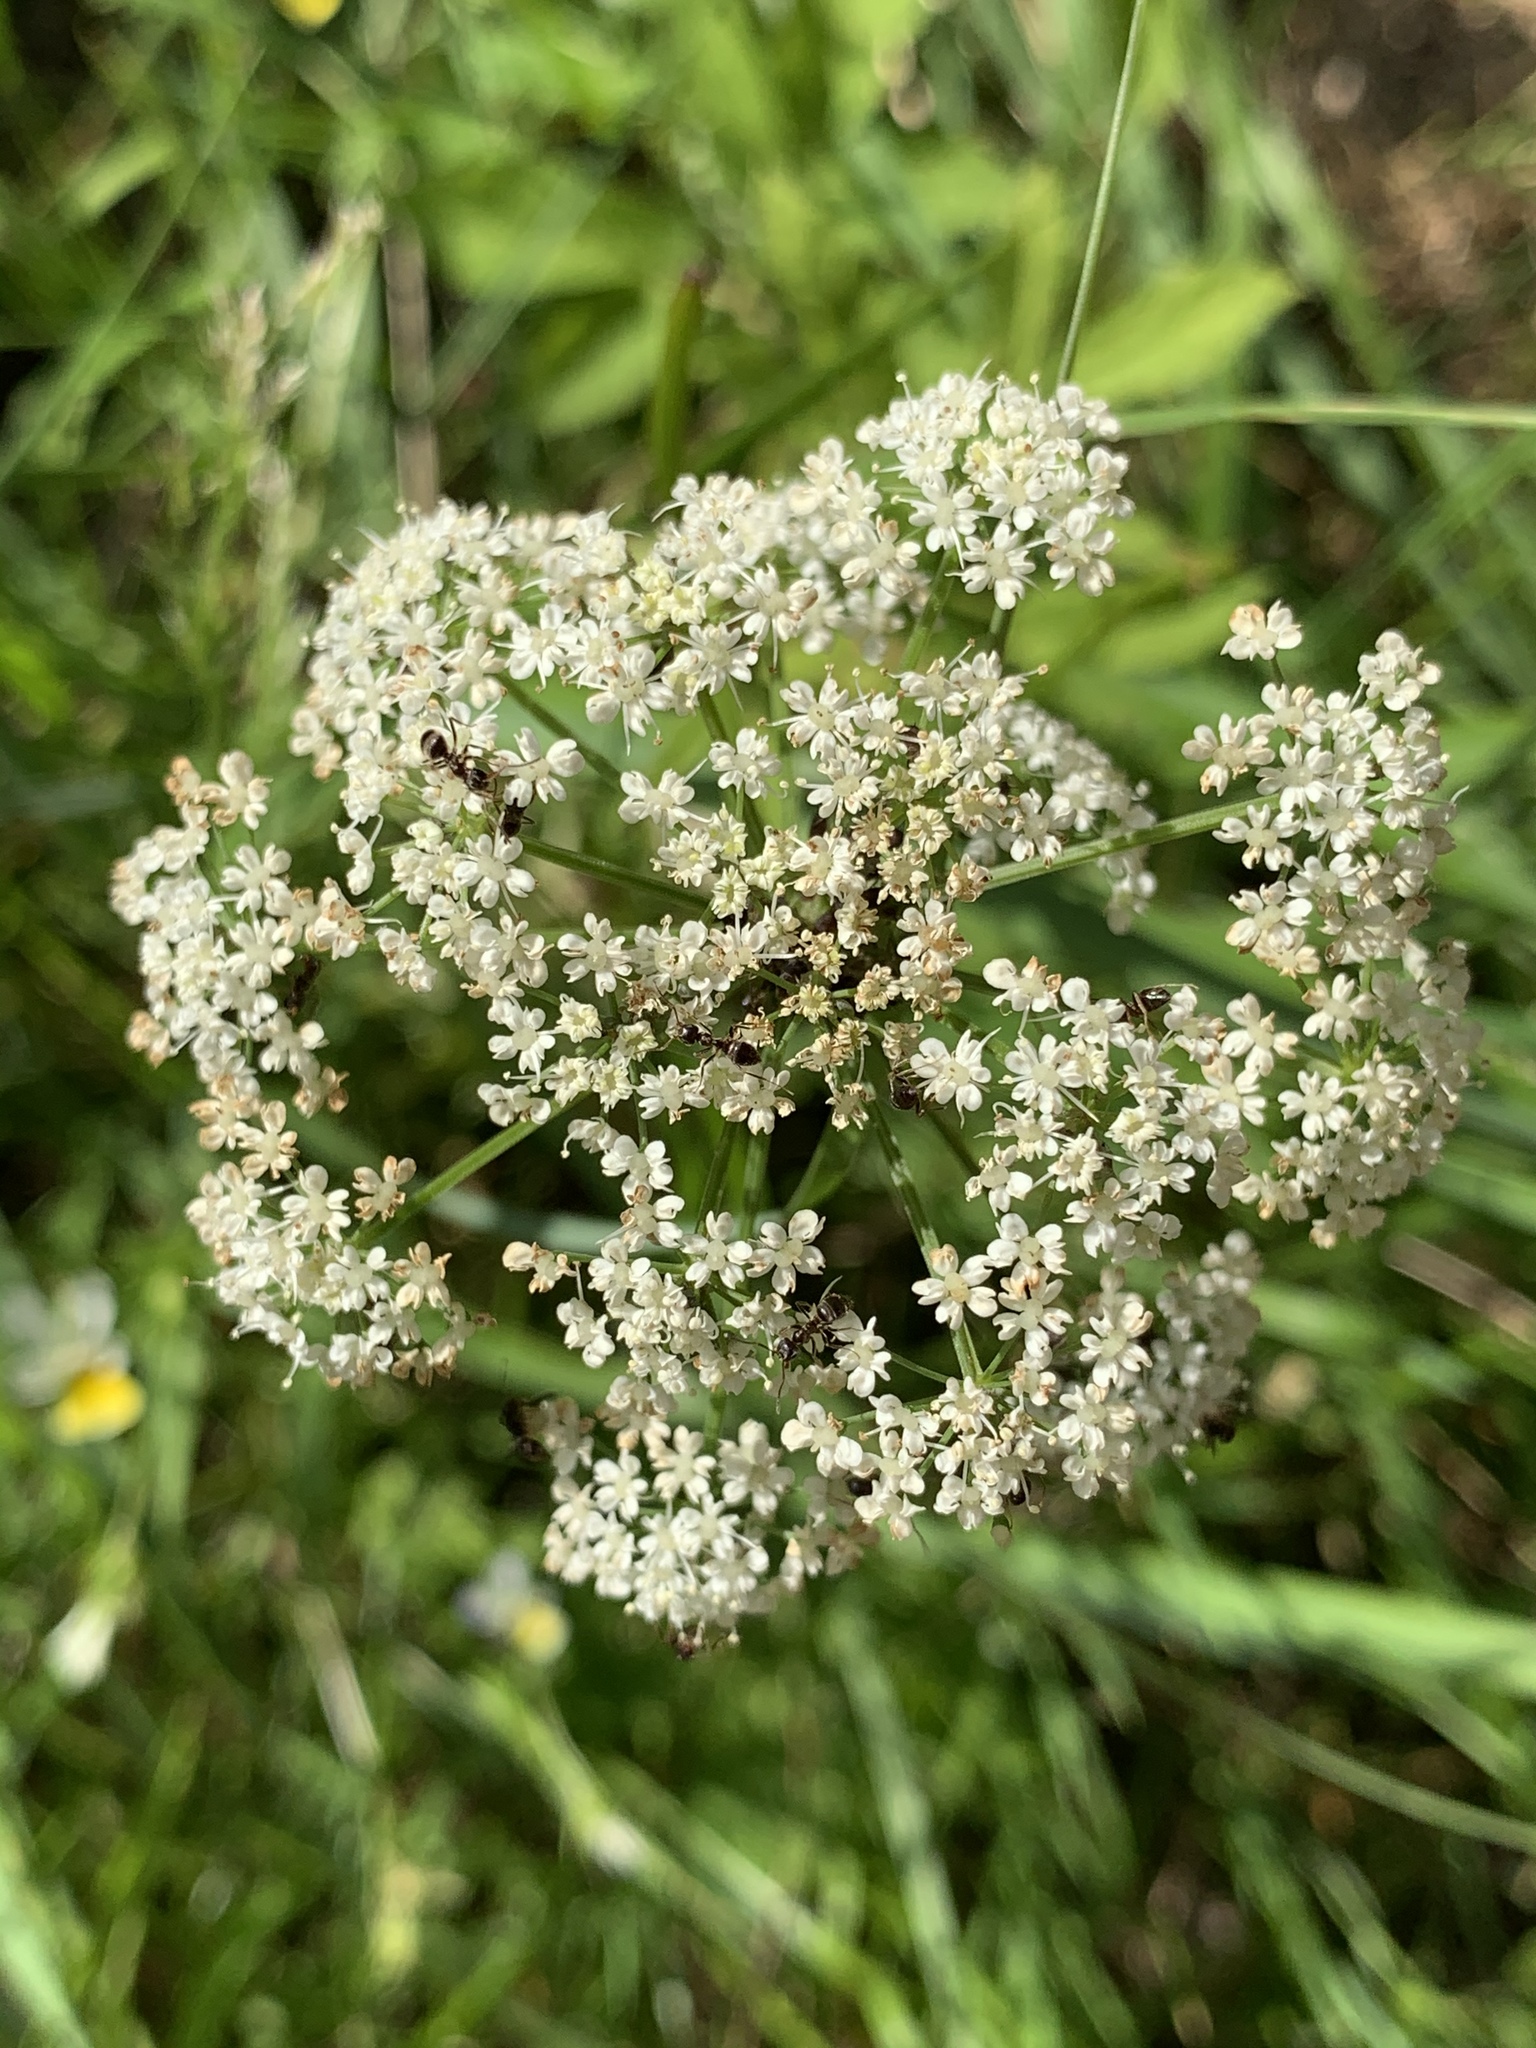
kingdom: Plantae
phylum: Tracheophyta
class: Magnoliopsida
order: Apiales
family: Apiaceae
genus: Aegopodium
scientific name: Aegopodium podagraria
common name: Ground-elder
